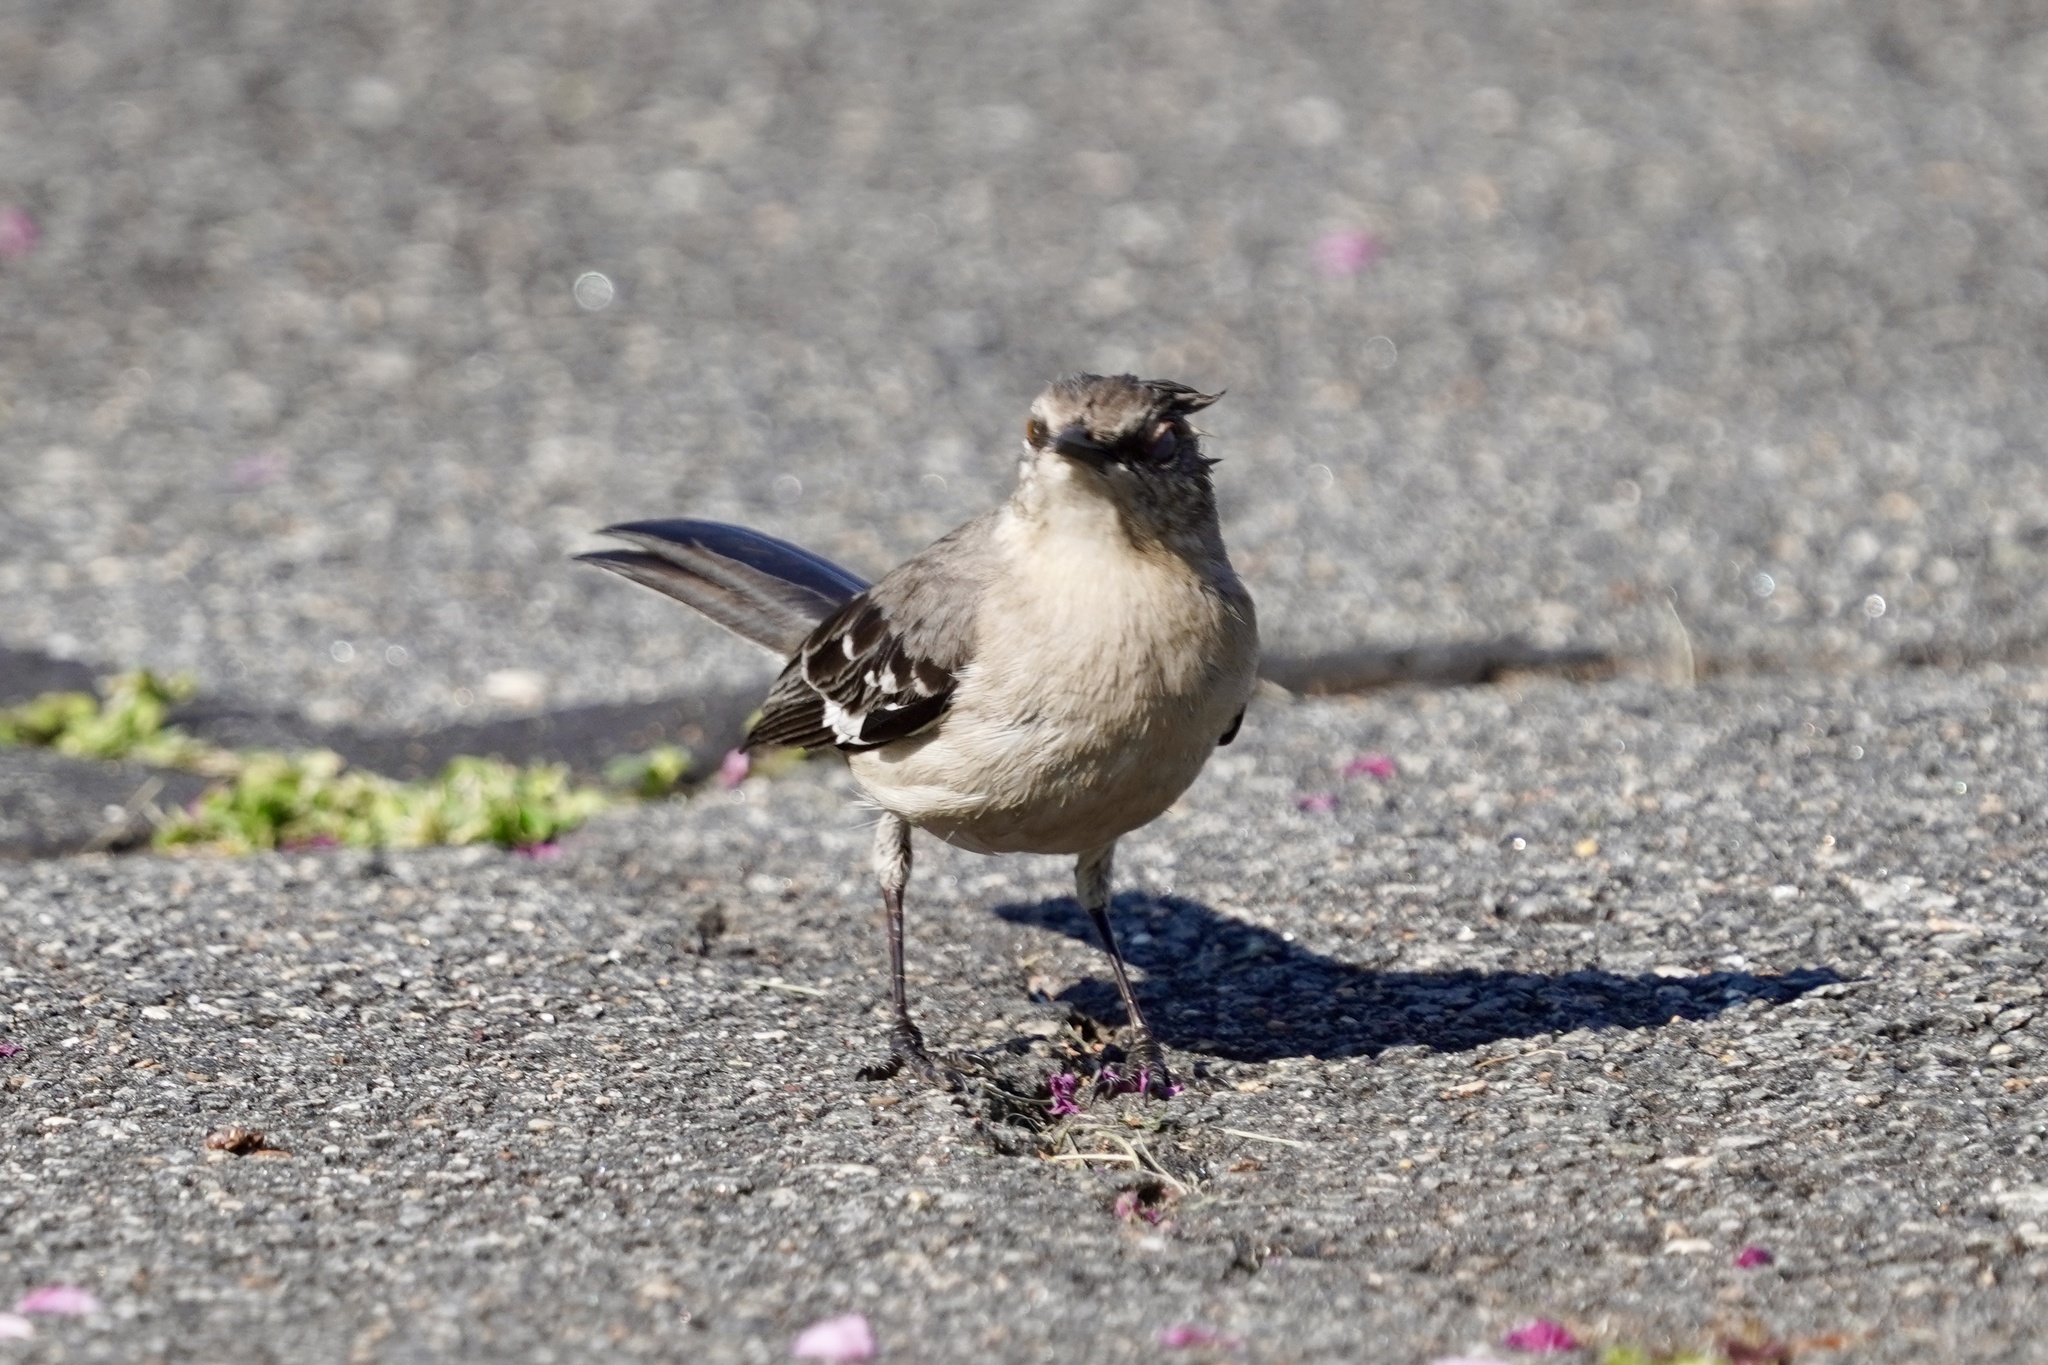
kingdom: Animalia
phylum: Chordata
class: Aves
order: Passeriformes
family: Mimidae
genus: Mimus
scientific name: Mimus polyglottos
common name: Northern mockingbird
